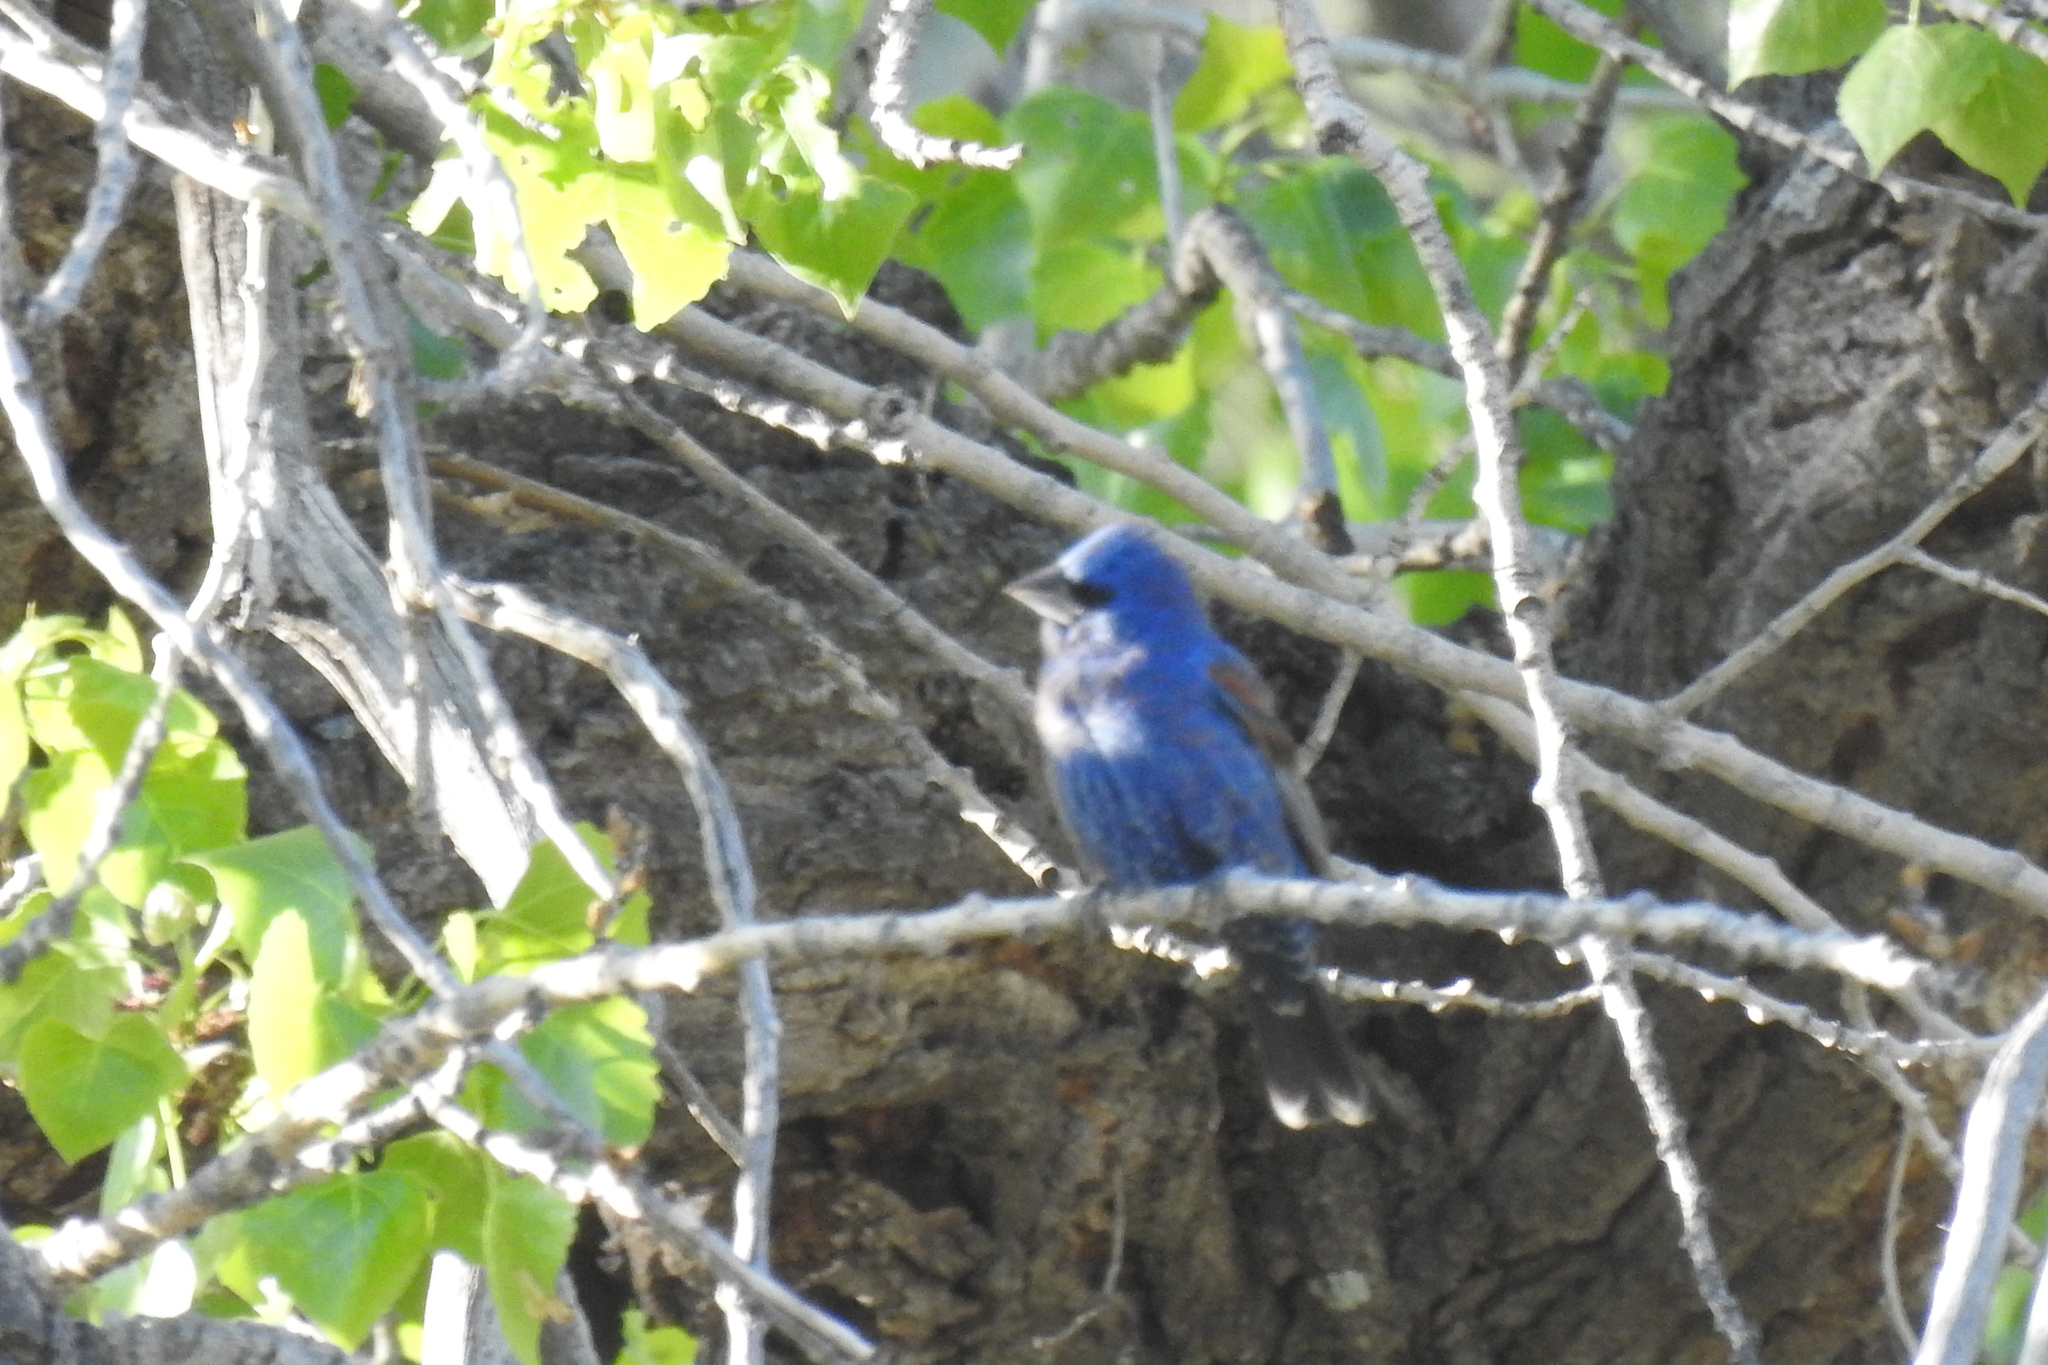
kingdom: Animalia
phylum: Chordata
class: Aves
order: Passeriformes
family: Cardinalidae
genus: Passerina
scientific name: Passerina caerulea
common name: Blue grosbeak
